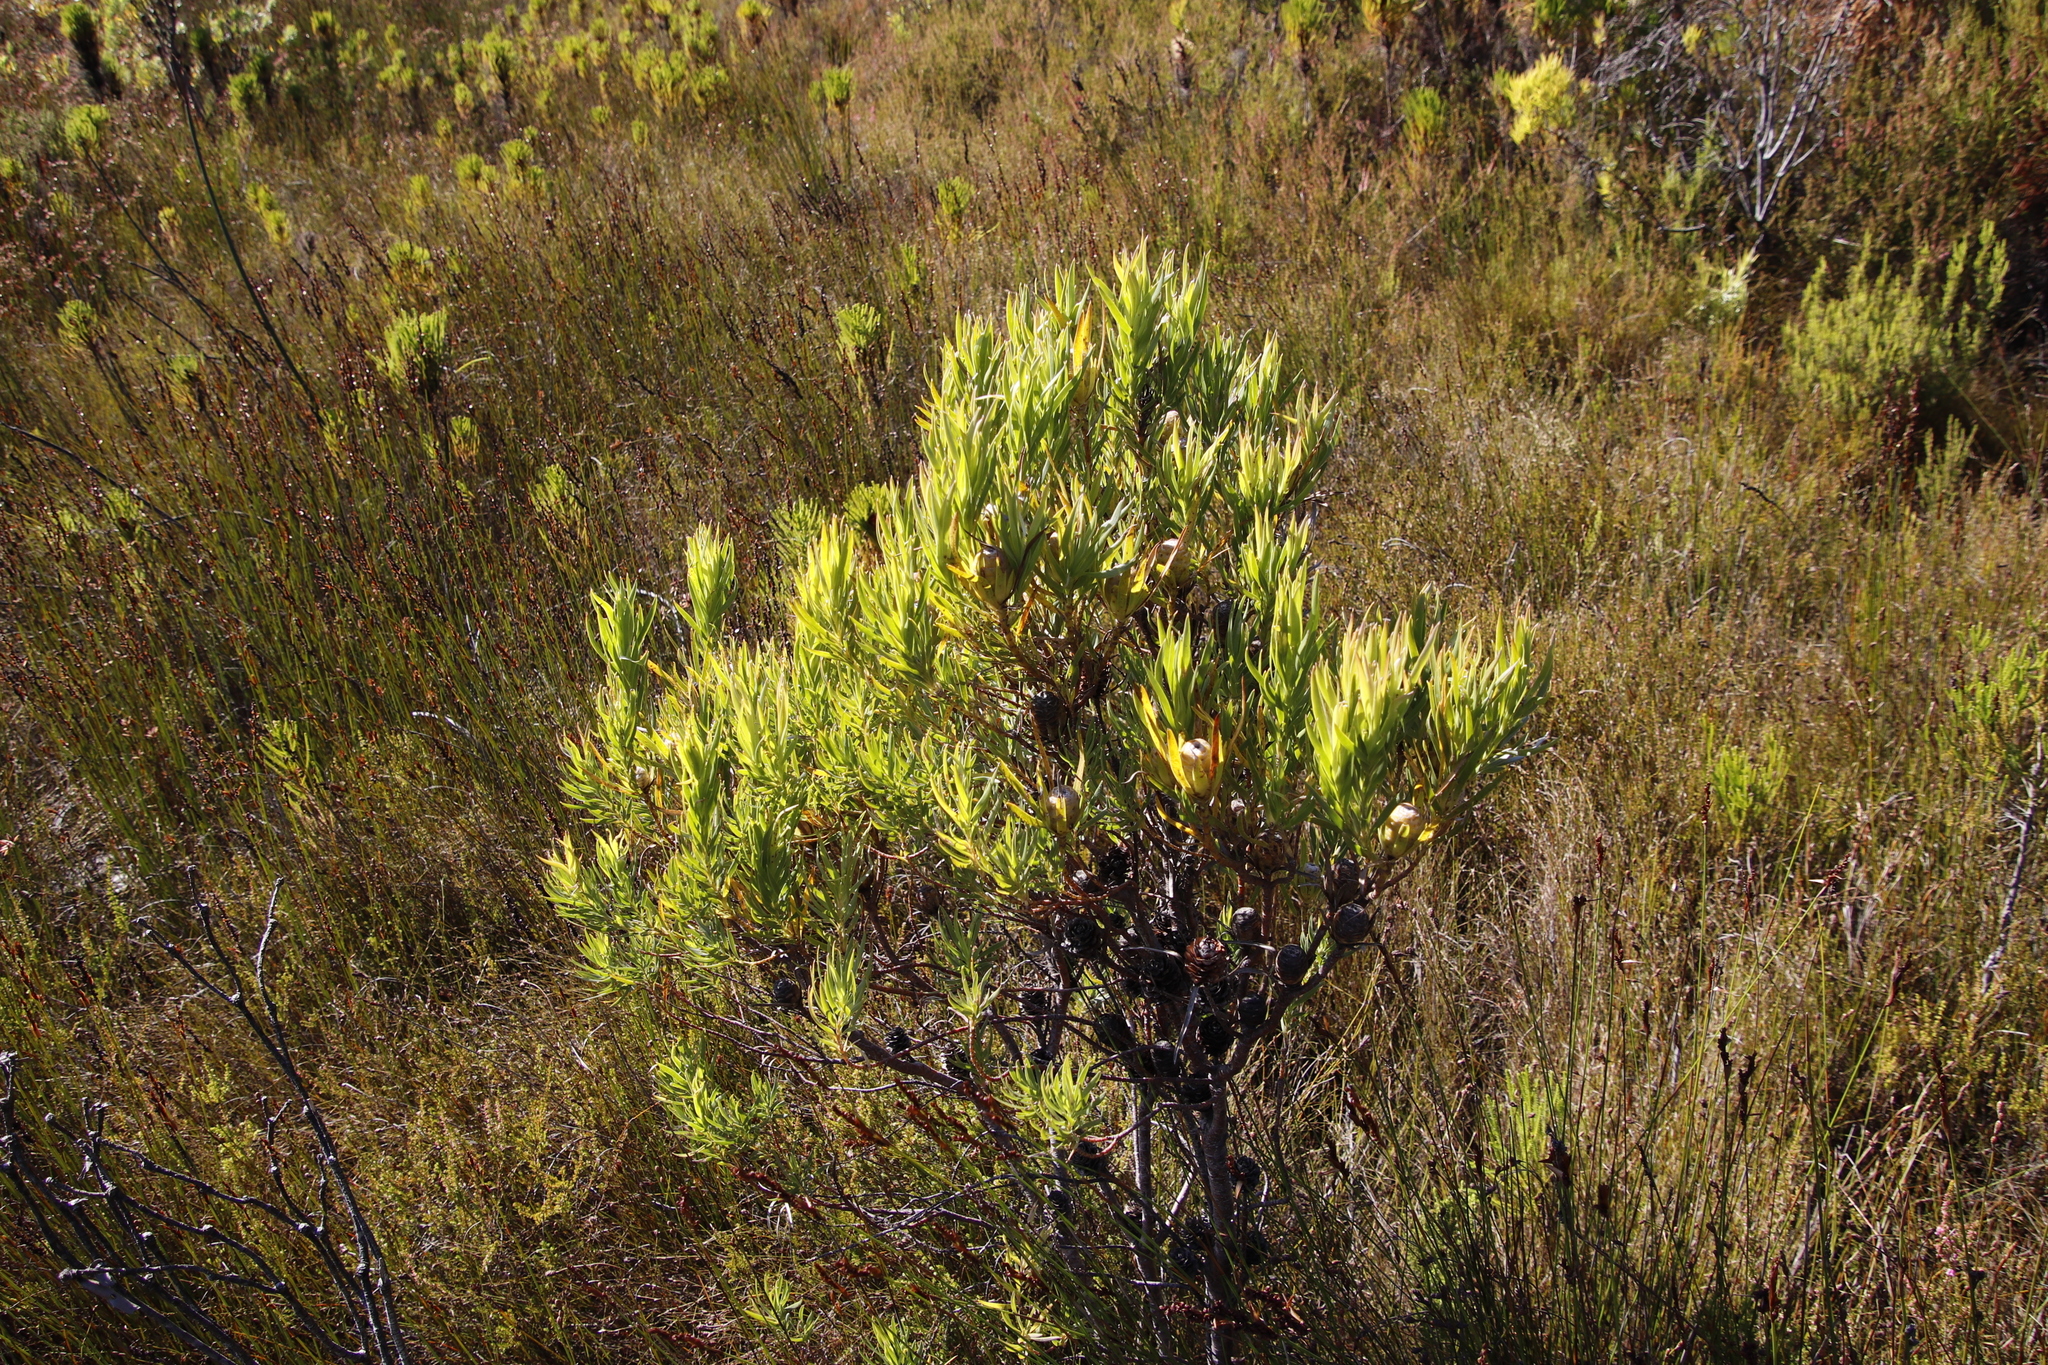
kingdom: Plantae
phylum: Tracheophyta
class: Magnoliopsida
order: Proteales
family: Proteaceae
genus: Leucadendron
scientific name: Leucadendron xanthoconus
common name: Sickle-leaf conebush
